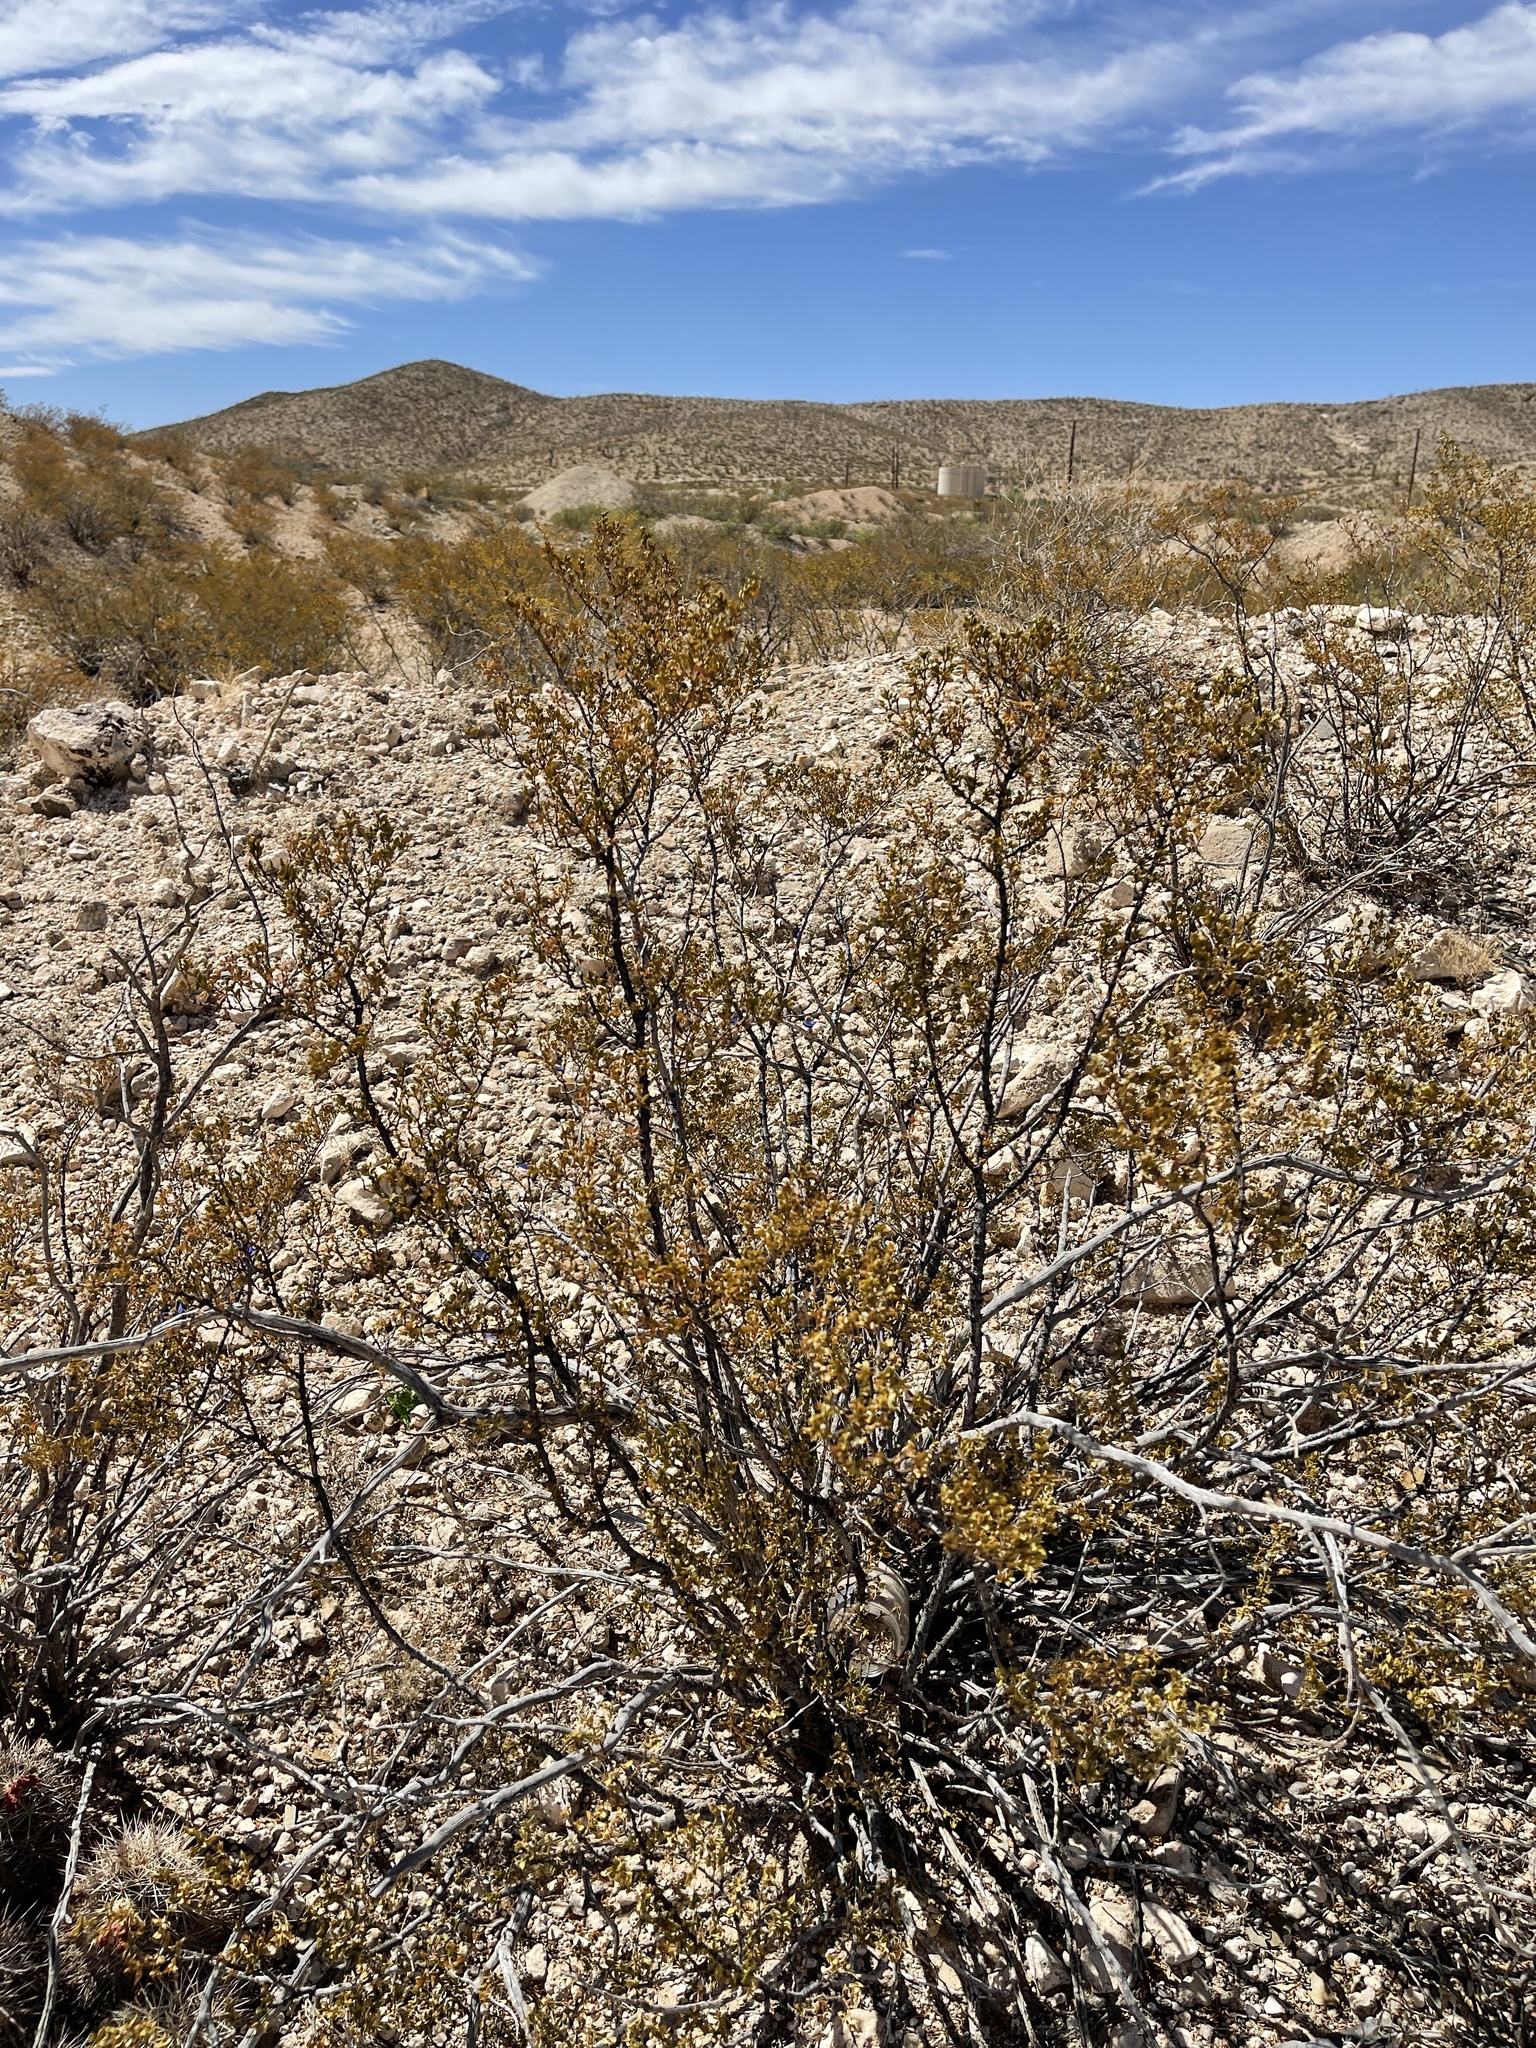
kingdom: Plantae
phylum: Tracheophyta
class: Magnoliopsida
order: Zygophyllales
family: Zygophyllaceae
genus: Larrea
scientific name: Larrea tridentata
